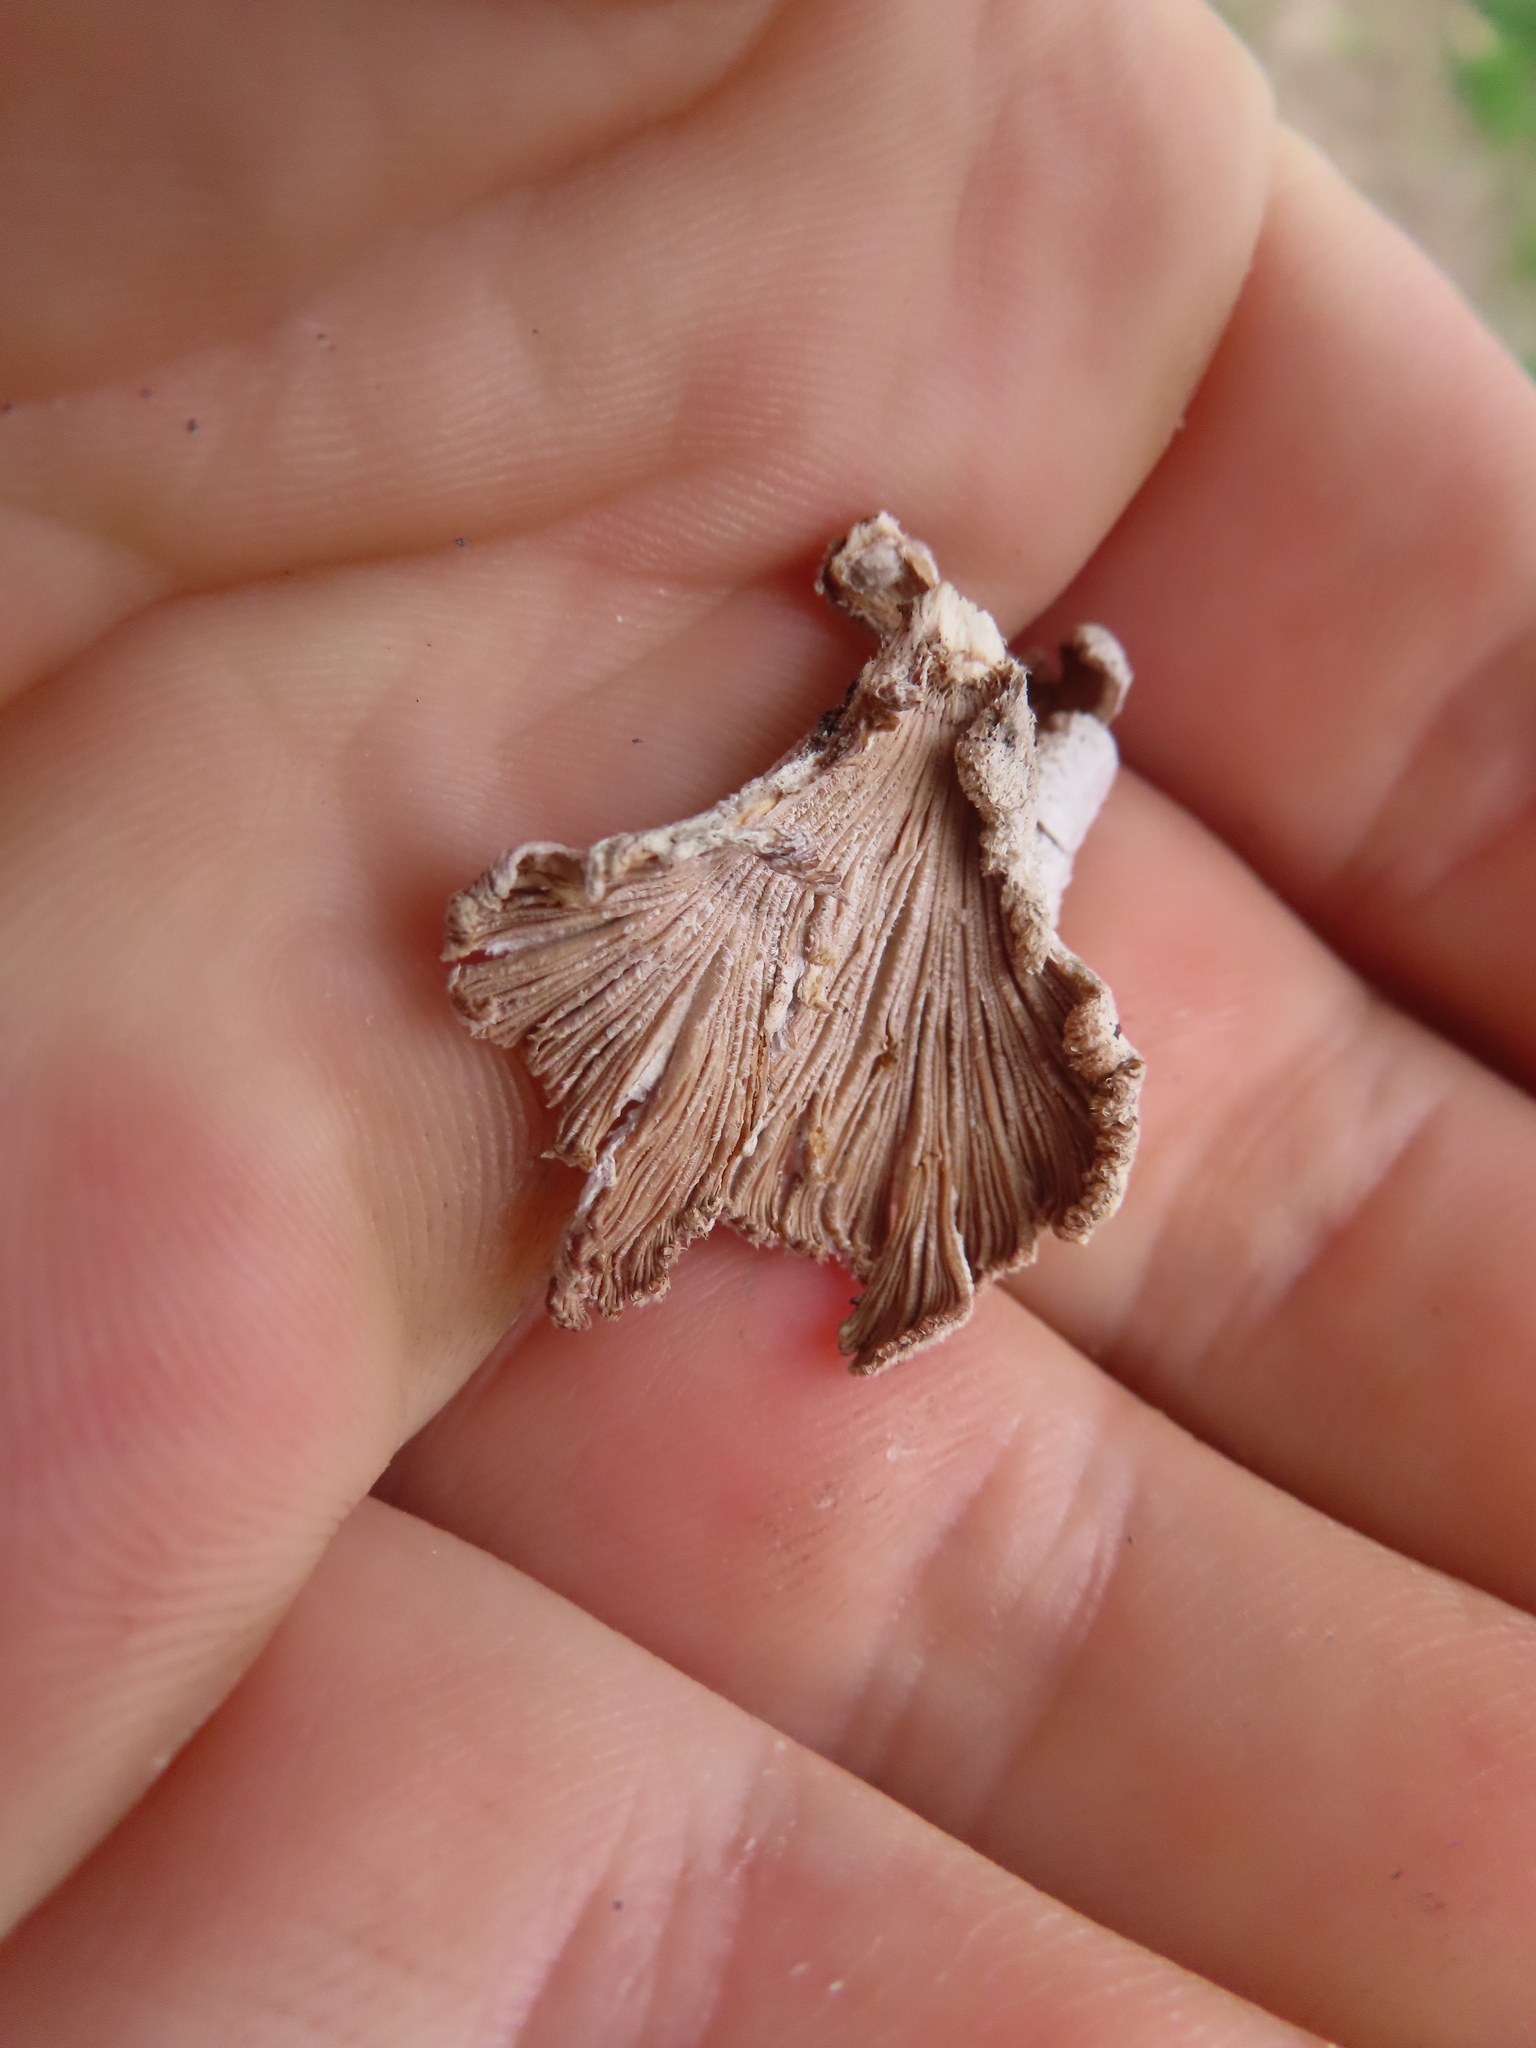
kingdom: Fungi
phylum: Basidiomycota
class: Agaricomycetes
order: Agaricales
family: Schizophyllaceae
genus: Schizophyllum
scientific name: Schizophyllum commune
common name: Common porecrust
